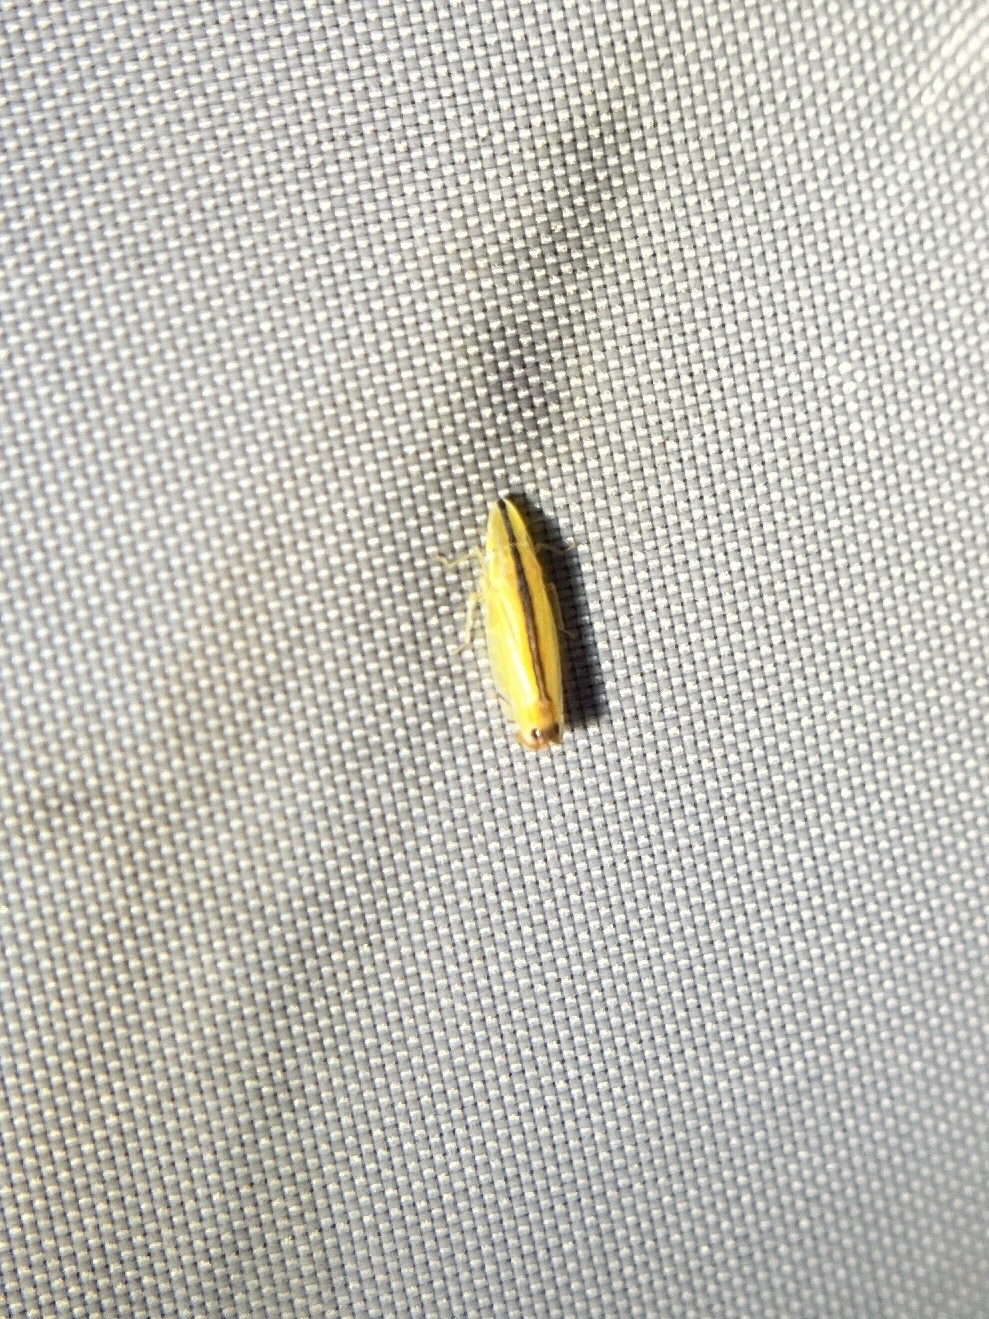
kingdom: Animalia
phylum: Arthropoda
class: Insecta
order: Hemiptera
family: Cicadellidae
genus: Sophonia
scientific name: Sophonia orientalis
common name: Two-spotted leafhopper
